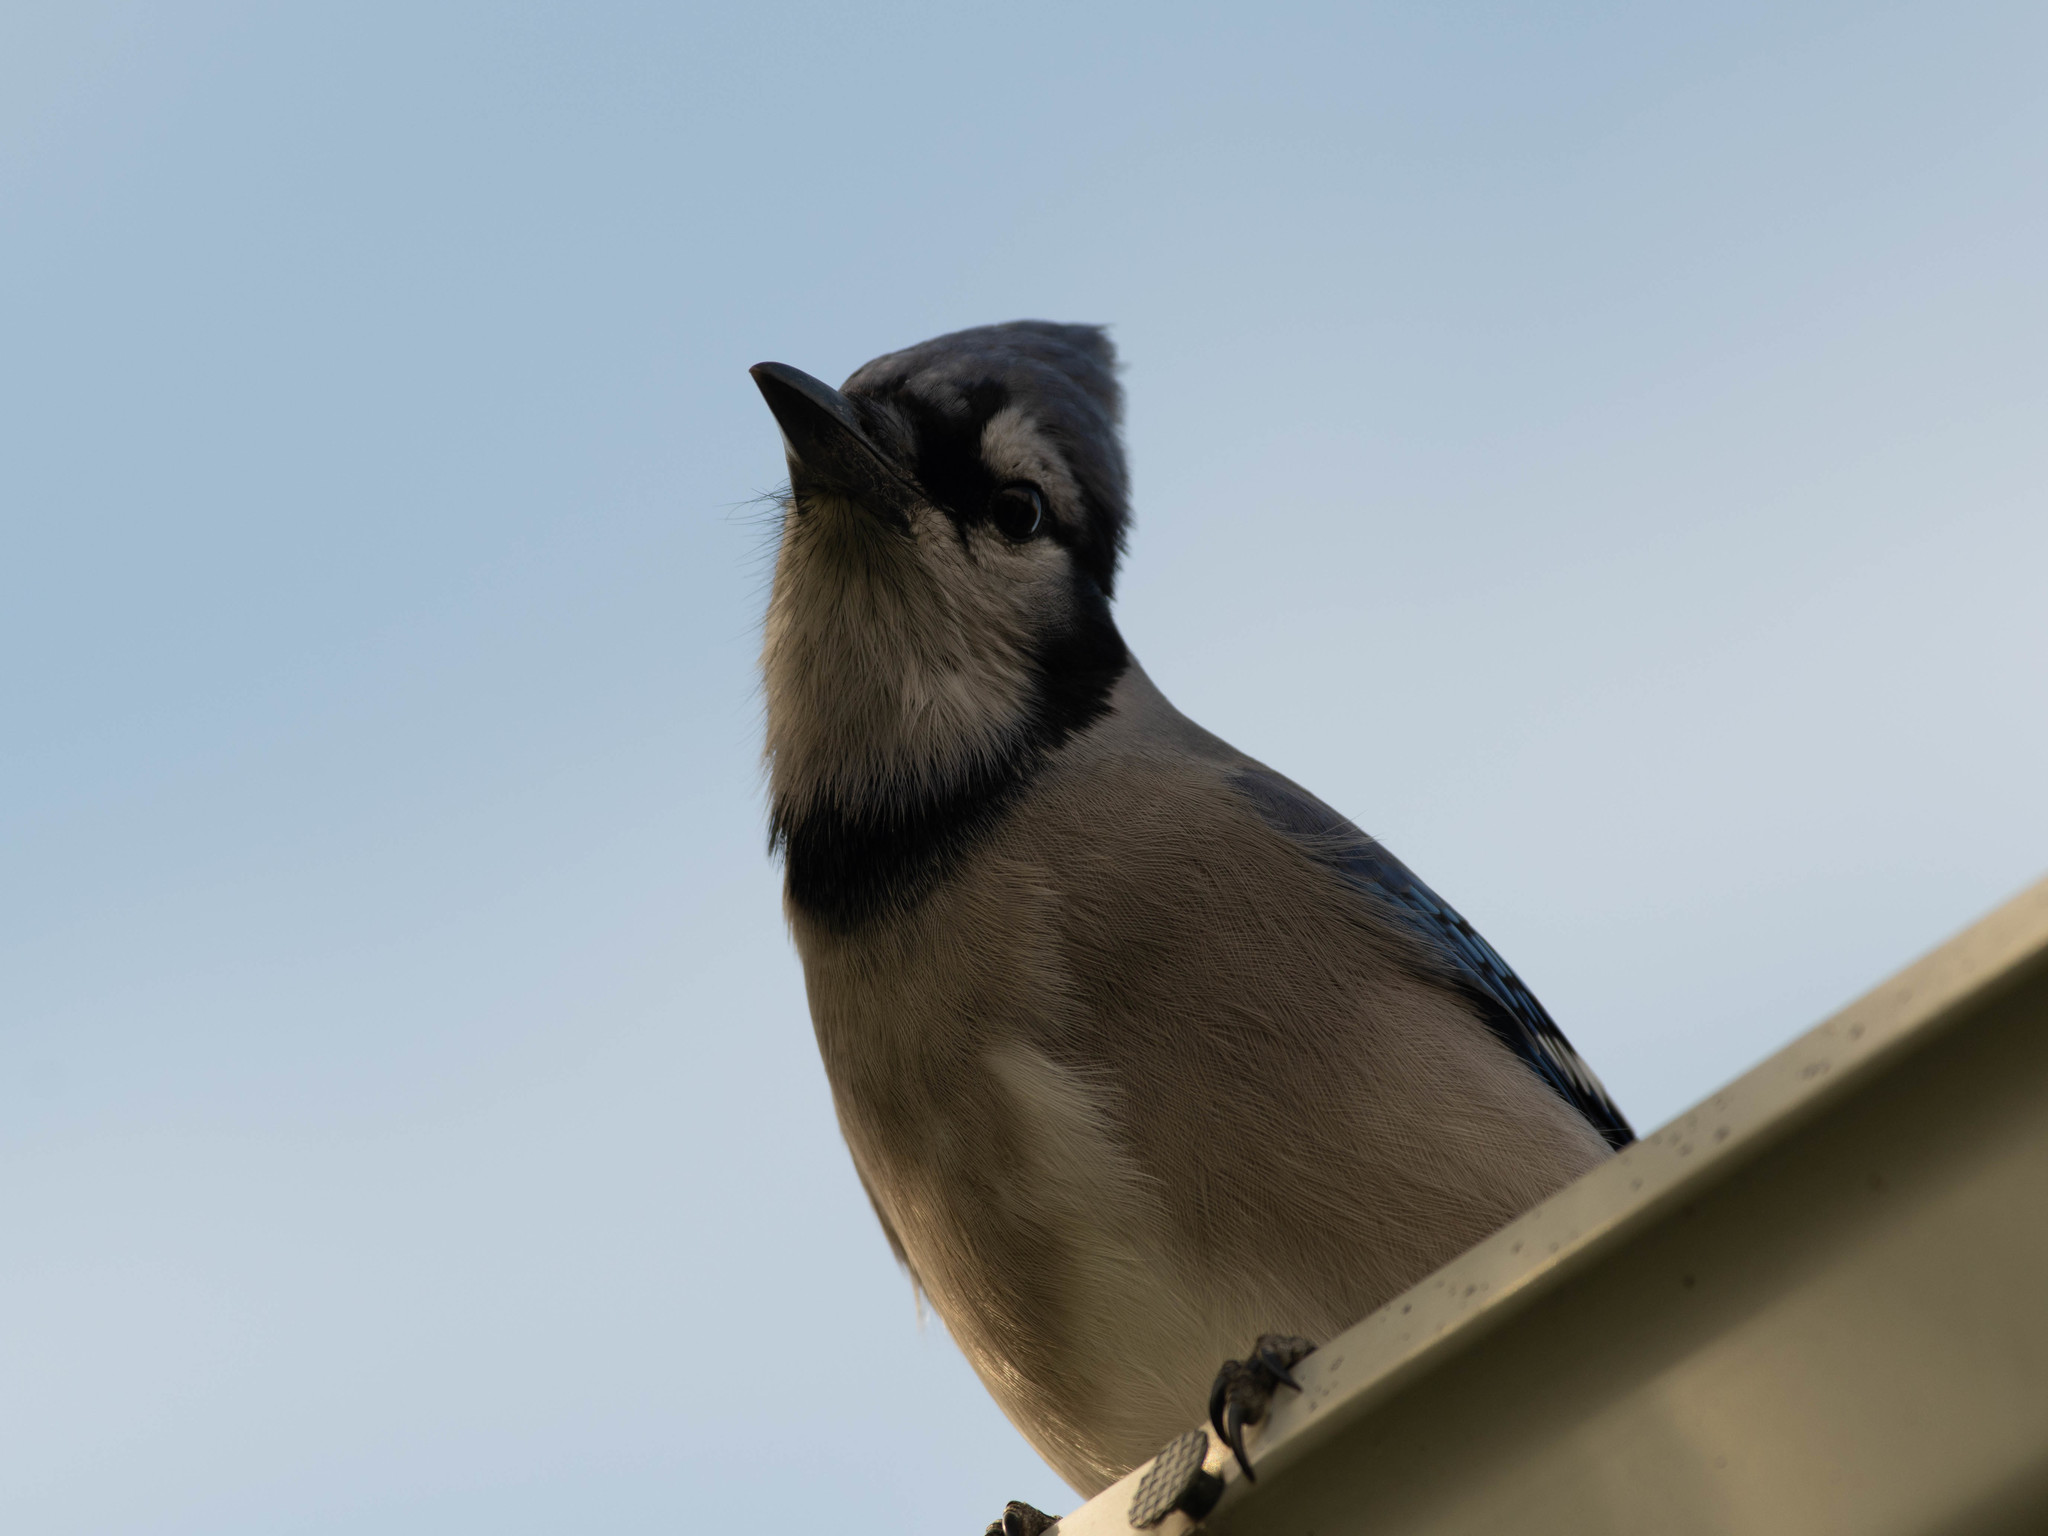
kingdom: Animalia
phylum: Chordata
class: Aves
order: Passeriformes
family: Corvidae
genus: Cyanocitta
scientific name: Cyanocitta cristata
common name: Blue jay
